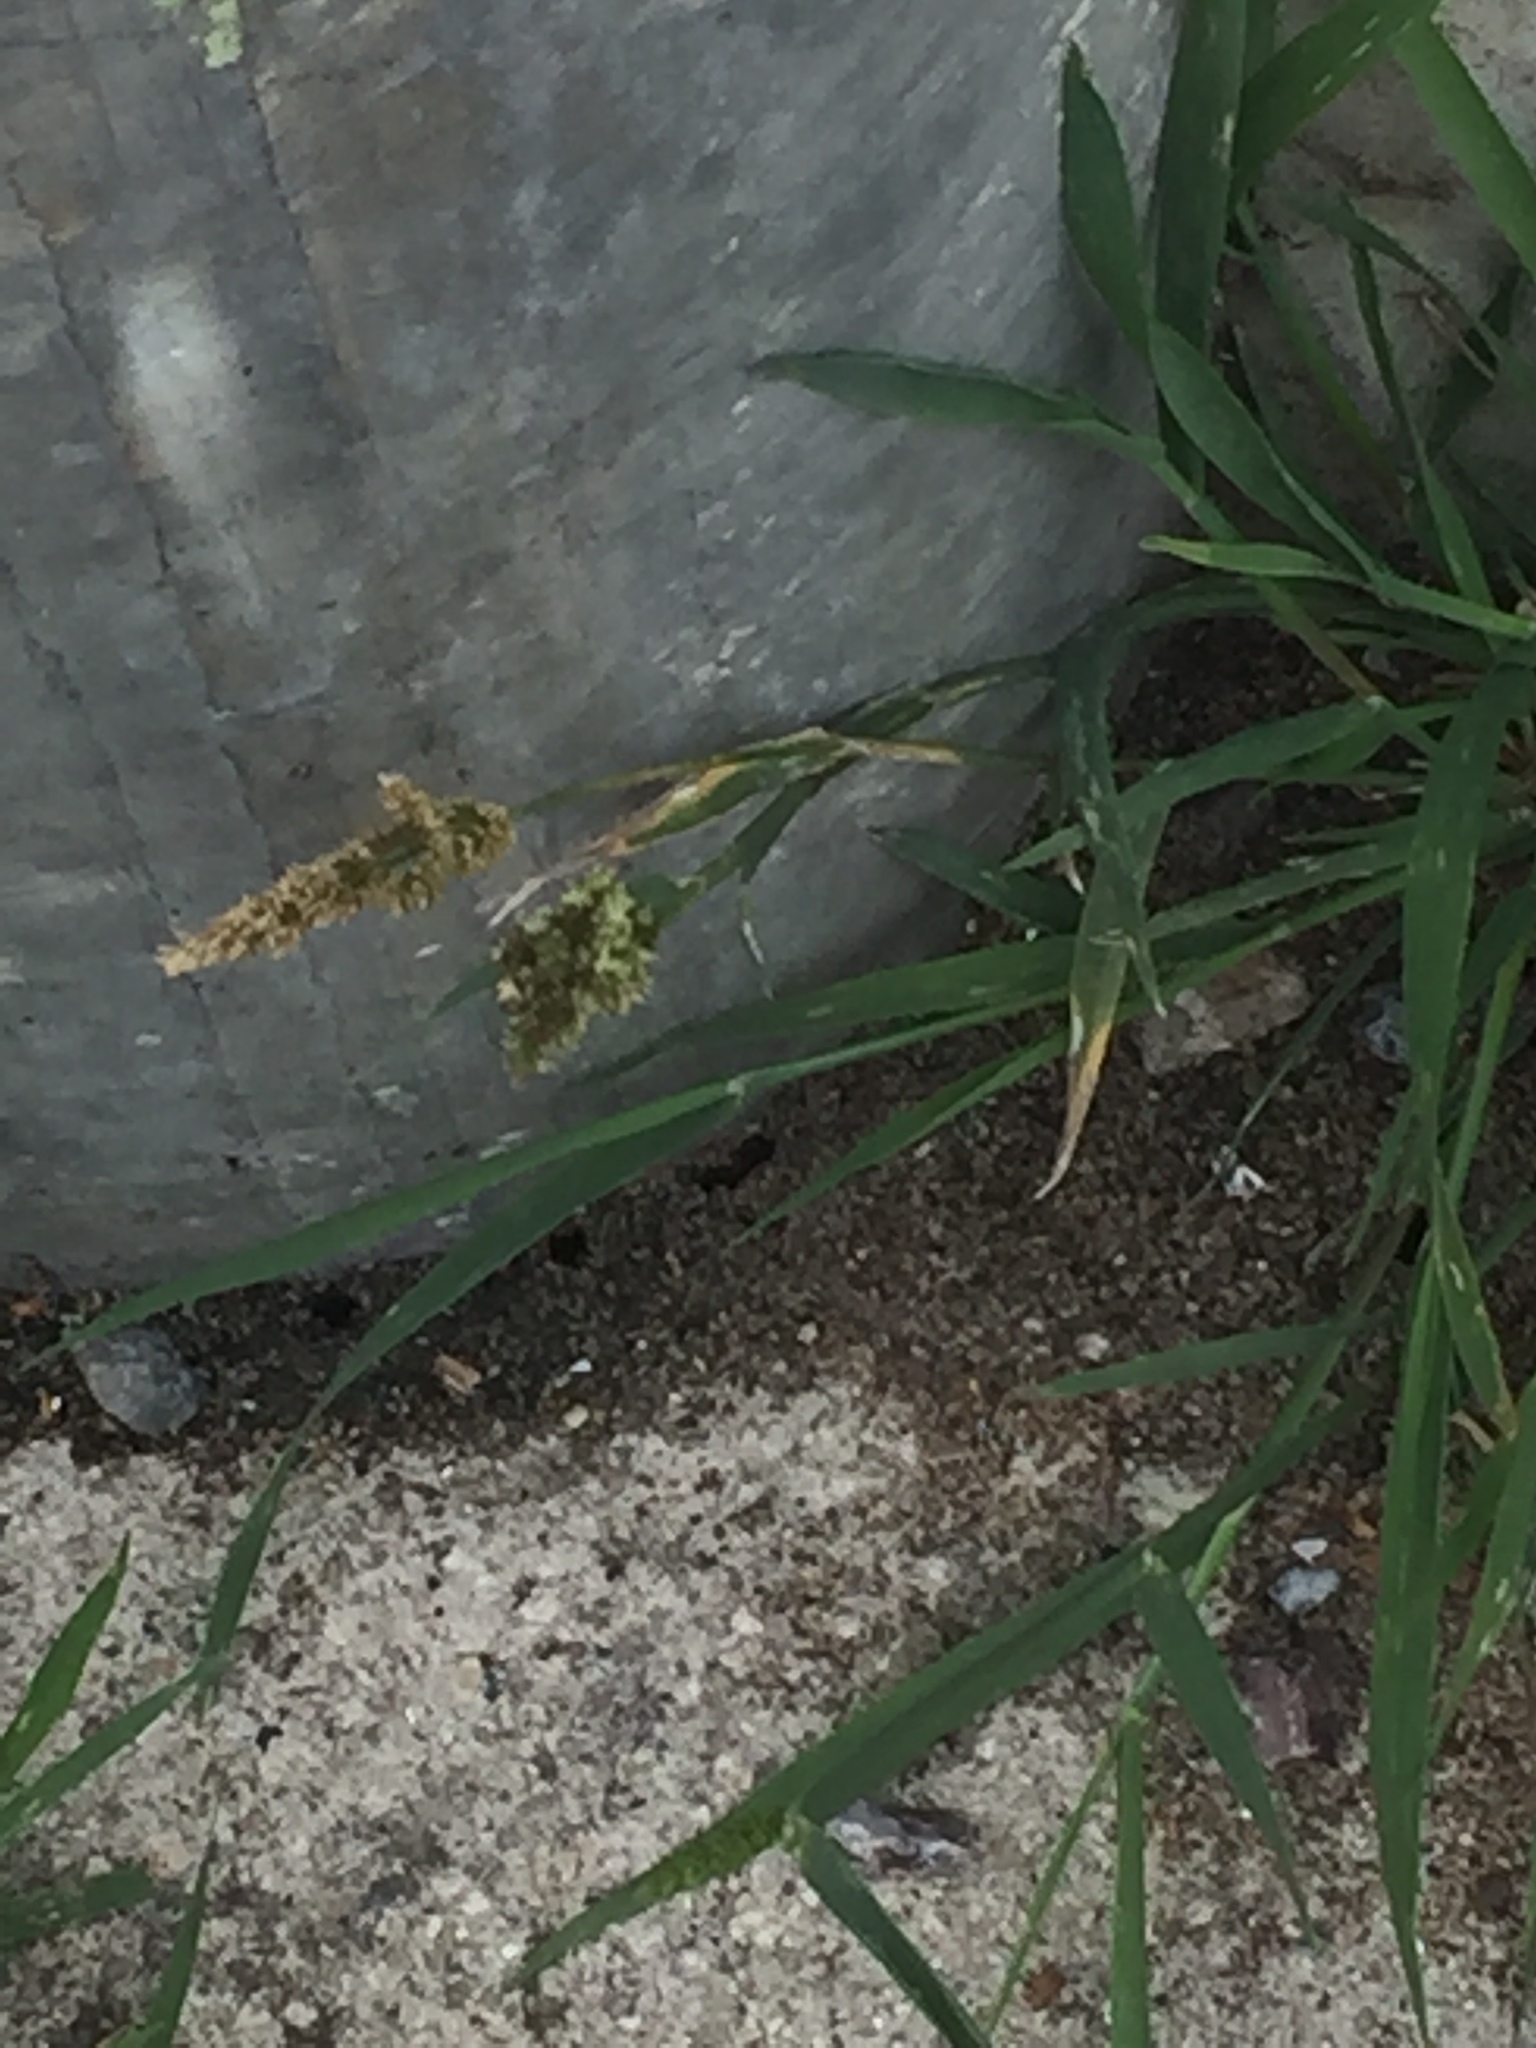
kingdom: Plantae
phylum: Tracheophyta
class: Liliopsida
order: Poales
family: Poaceae
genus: Polypogon
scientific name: Polypogon viridis
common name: Water bent
